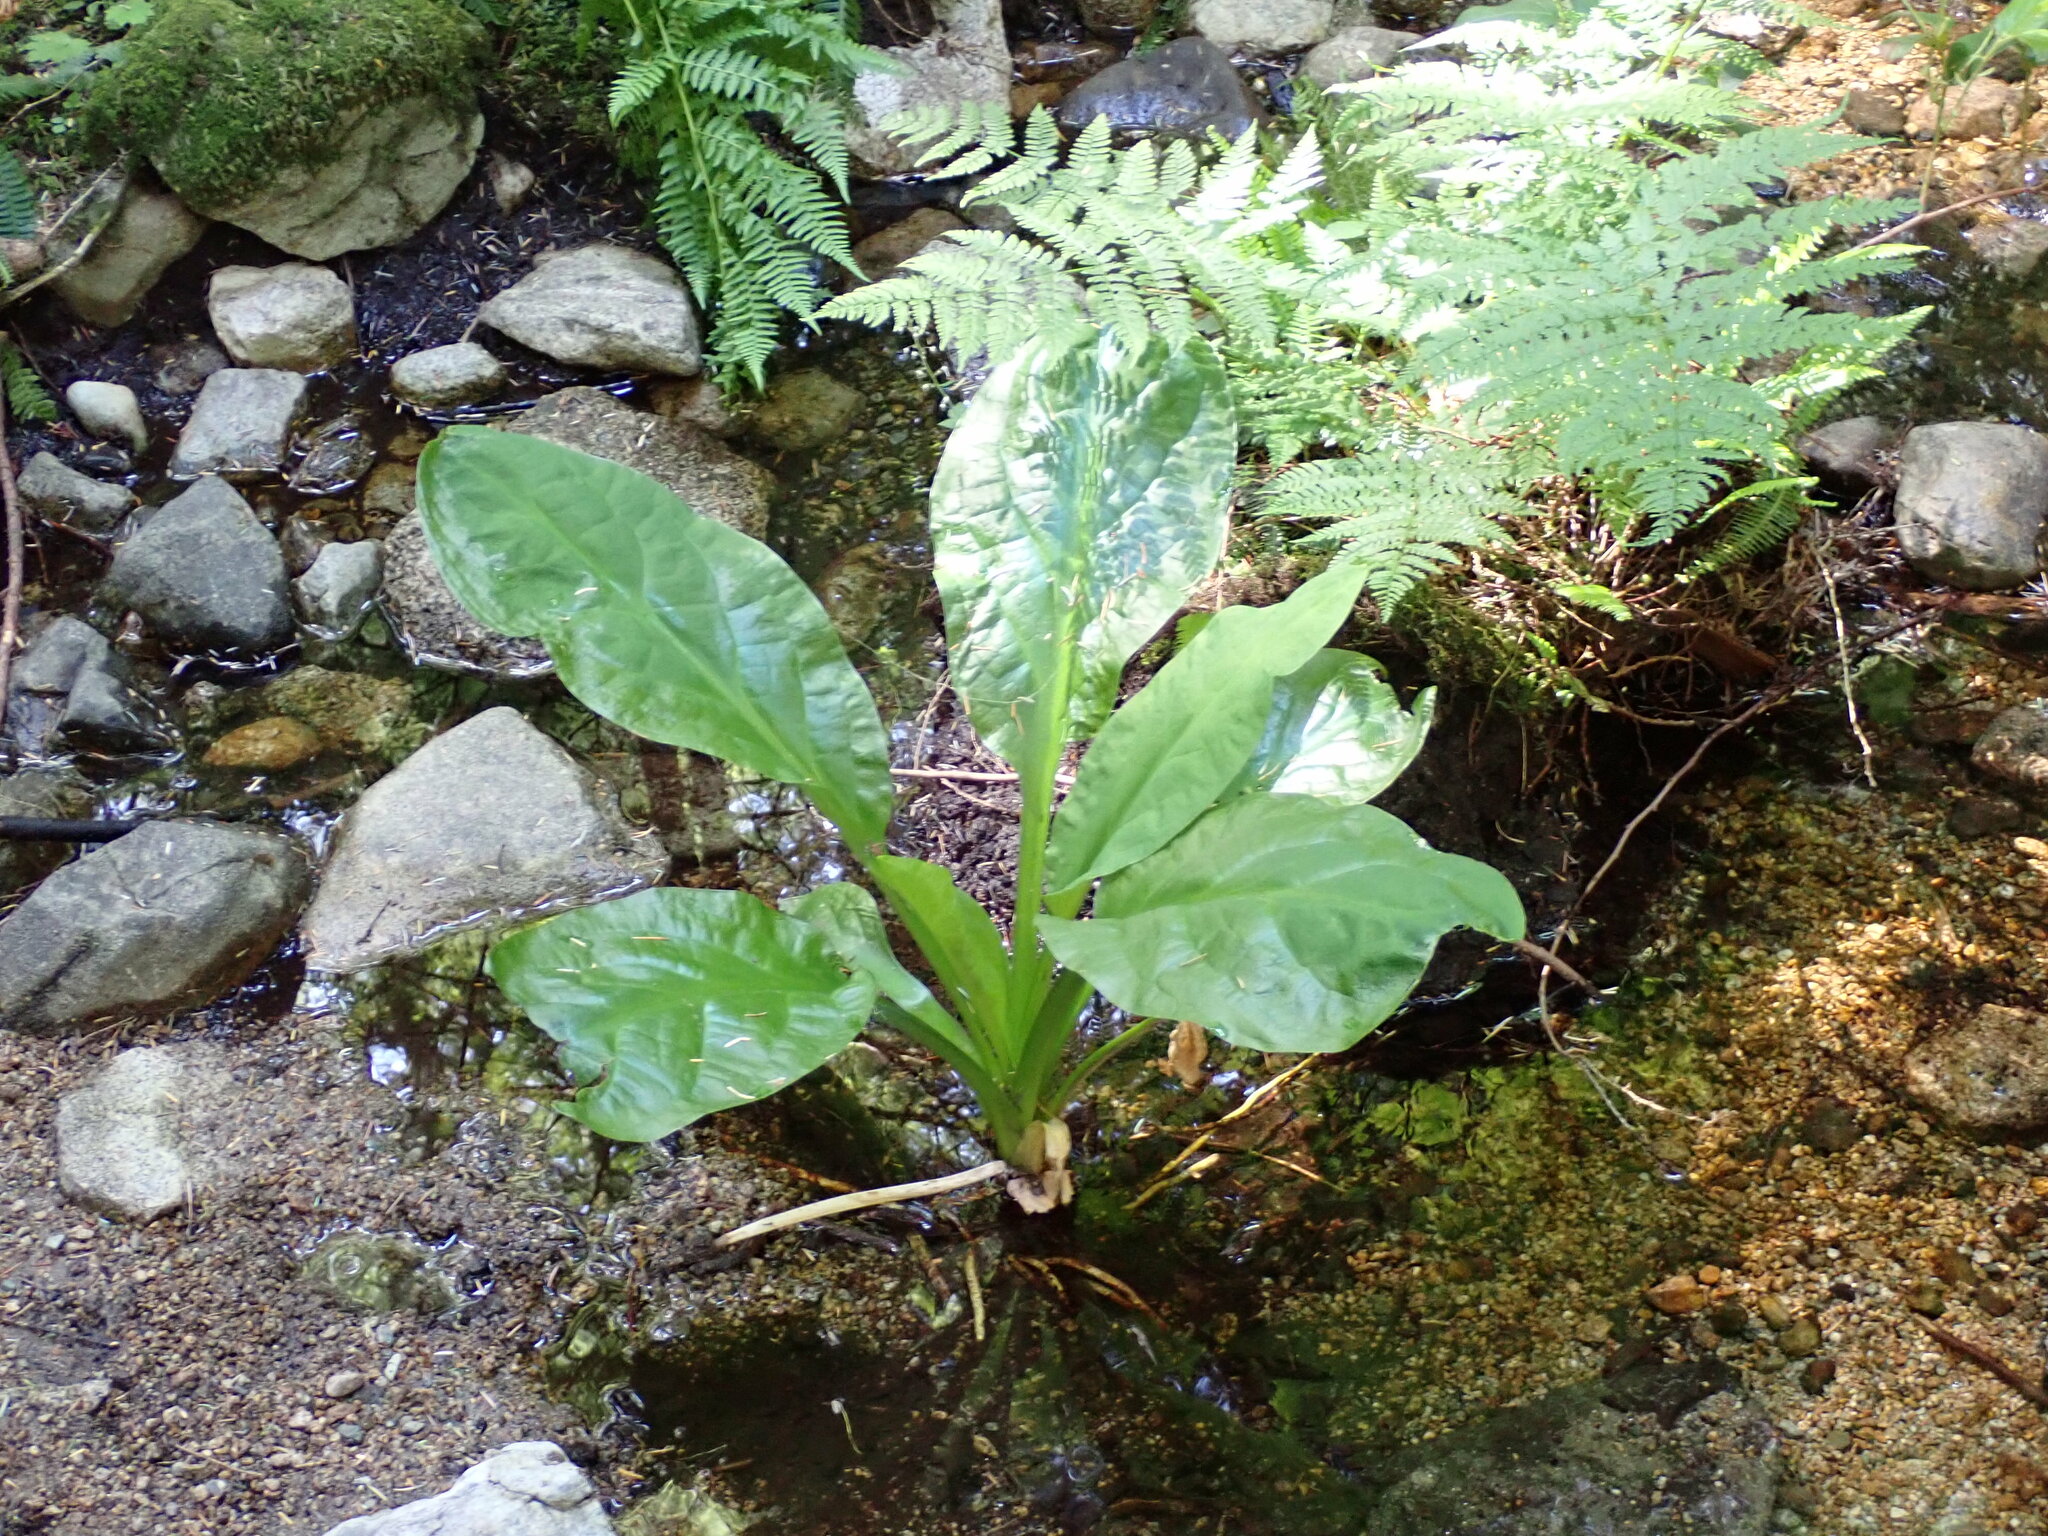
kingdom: Plantae
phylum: Tracheophyta
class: Liliopsida
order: Alismatales
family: Araceae
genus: Lysichiton
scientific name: Lysichiton americanus
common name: American skunk cabbage
